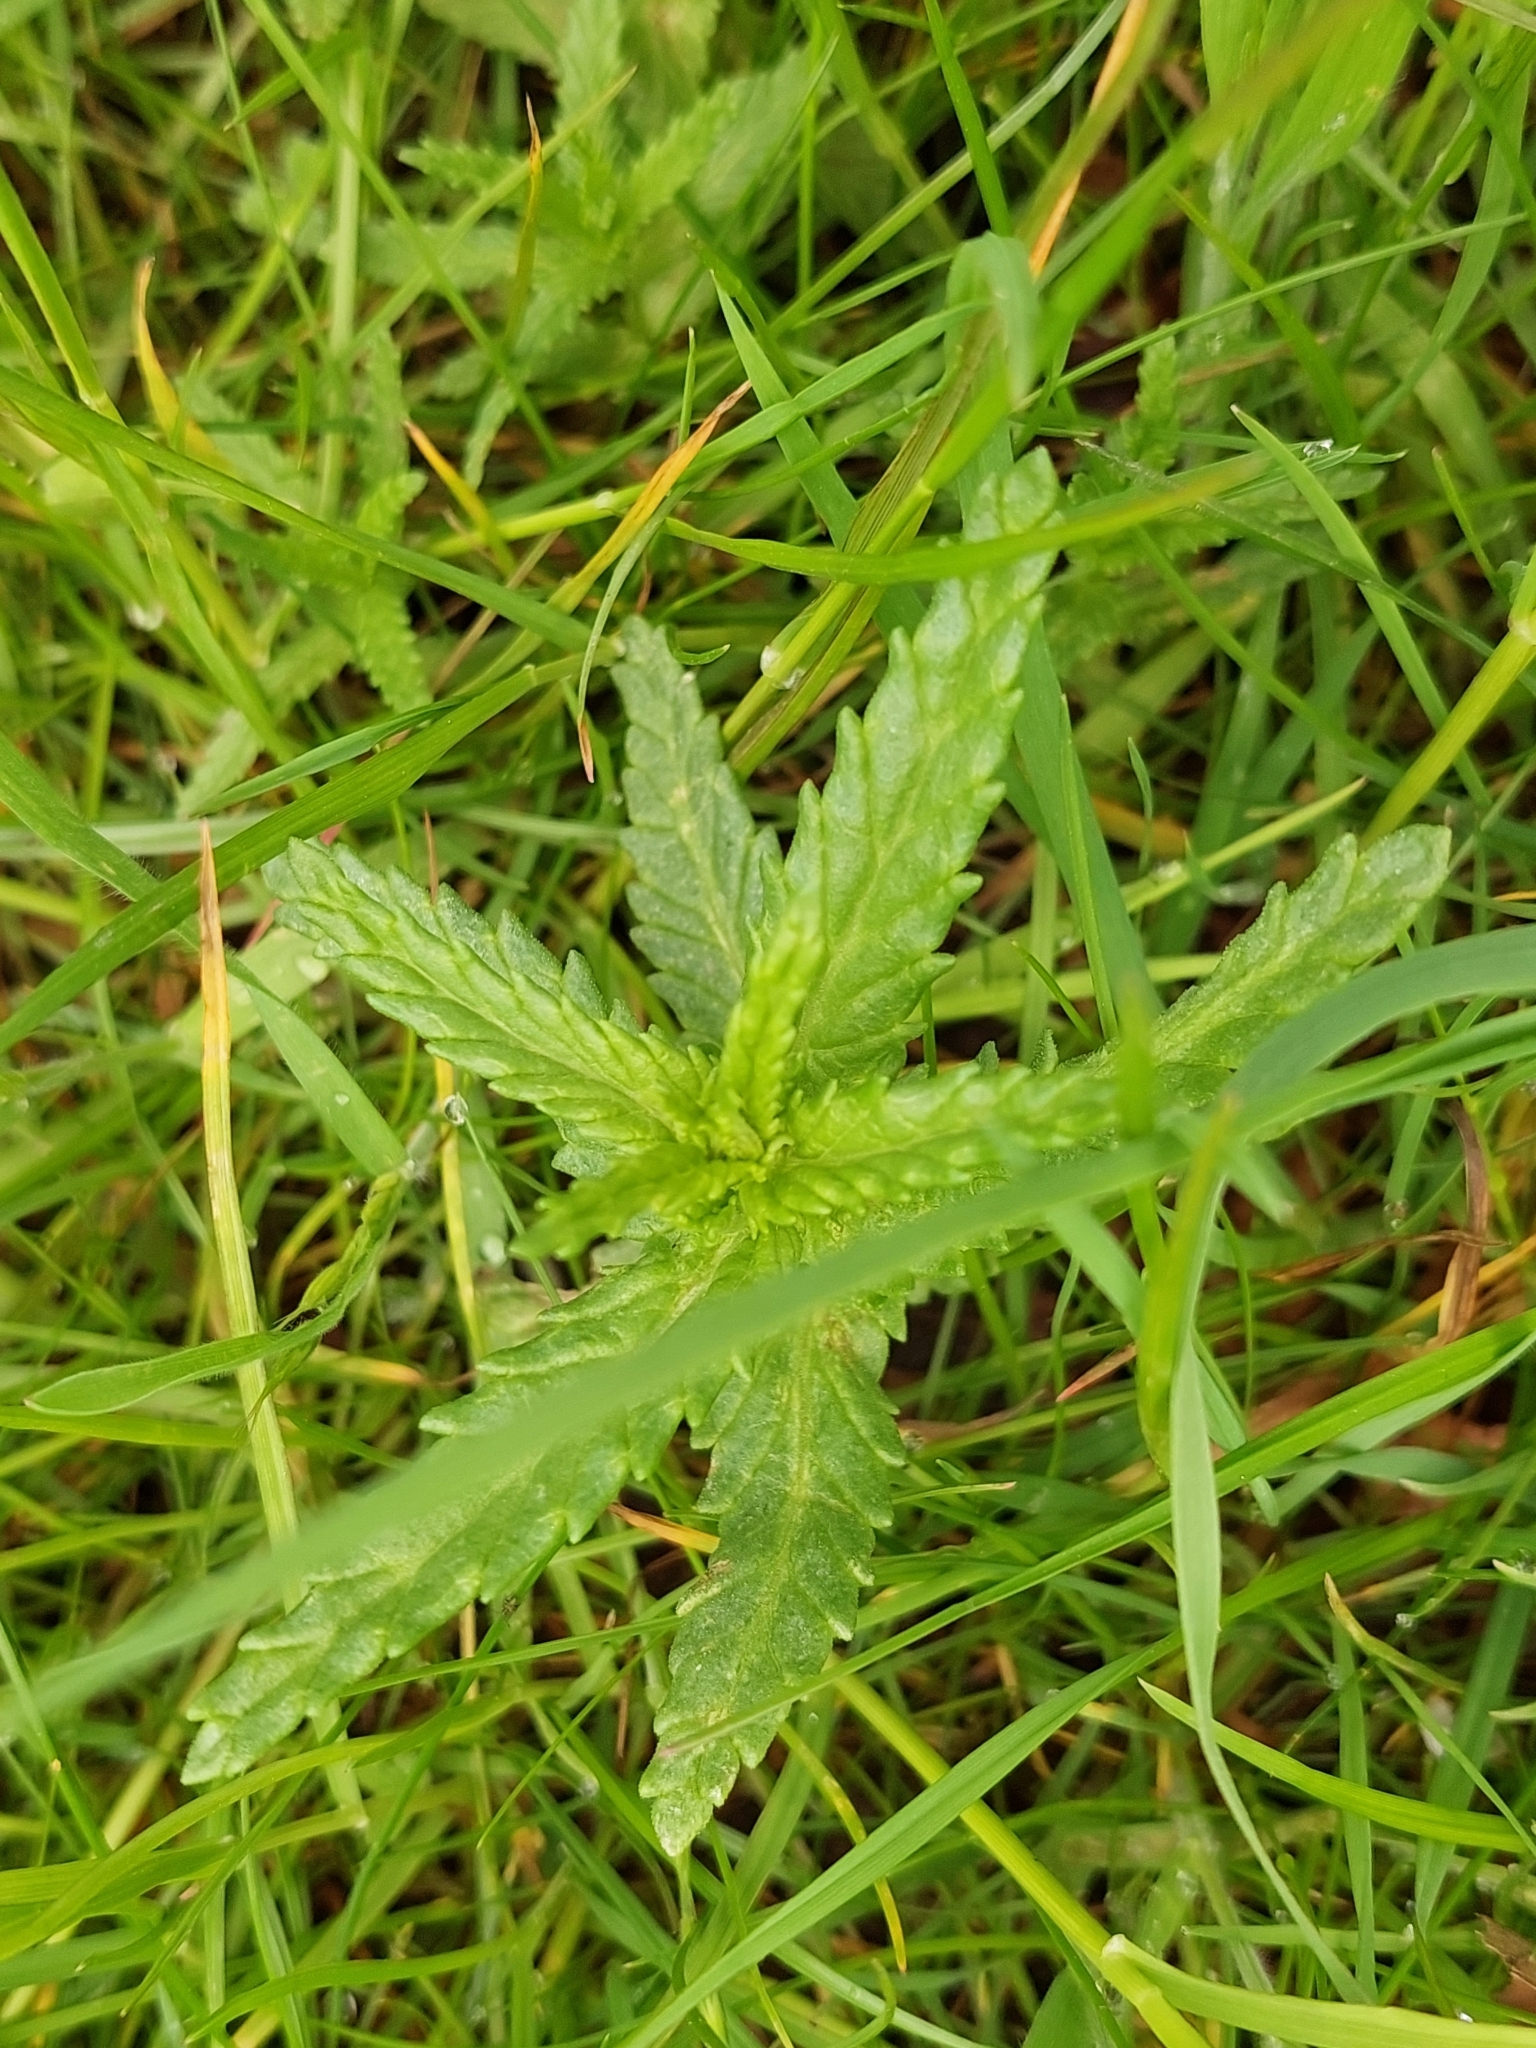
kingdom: Plantae
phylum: Tracheophyta
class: Magnoliopsida
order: Lamiales
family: Orobanchaceae
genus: Rhinanthus
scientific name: Rhinanthus minor
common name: Yellow-rattle
